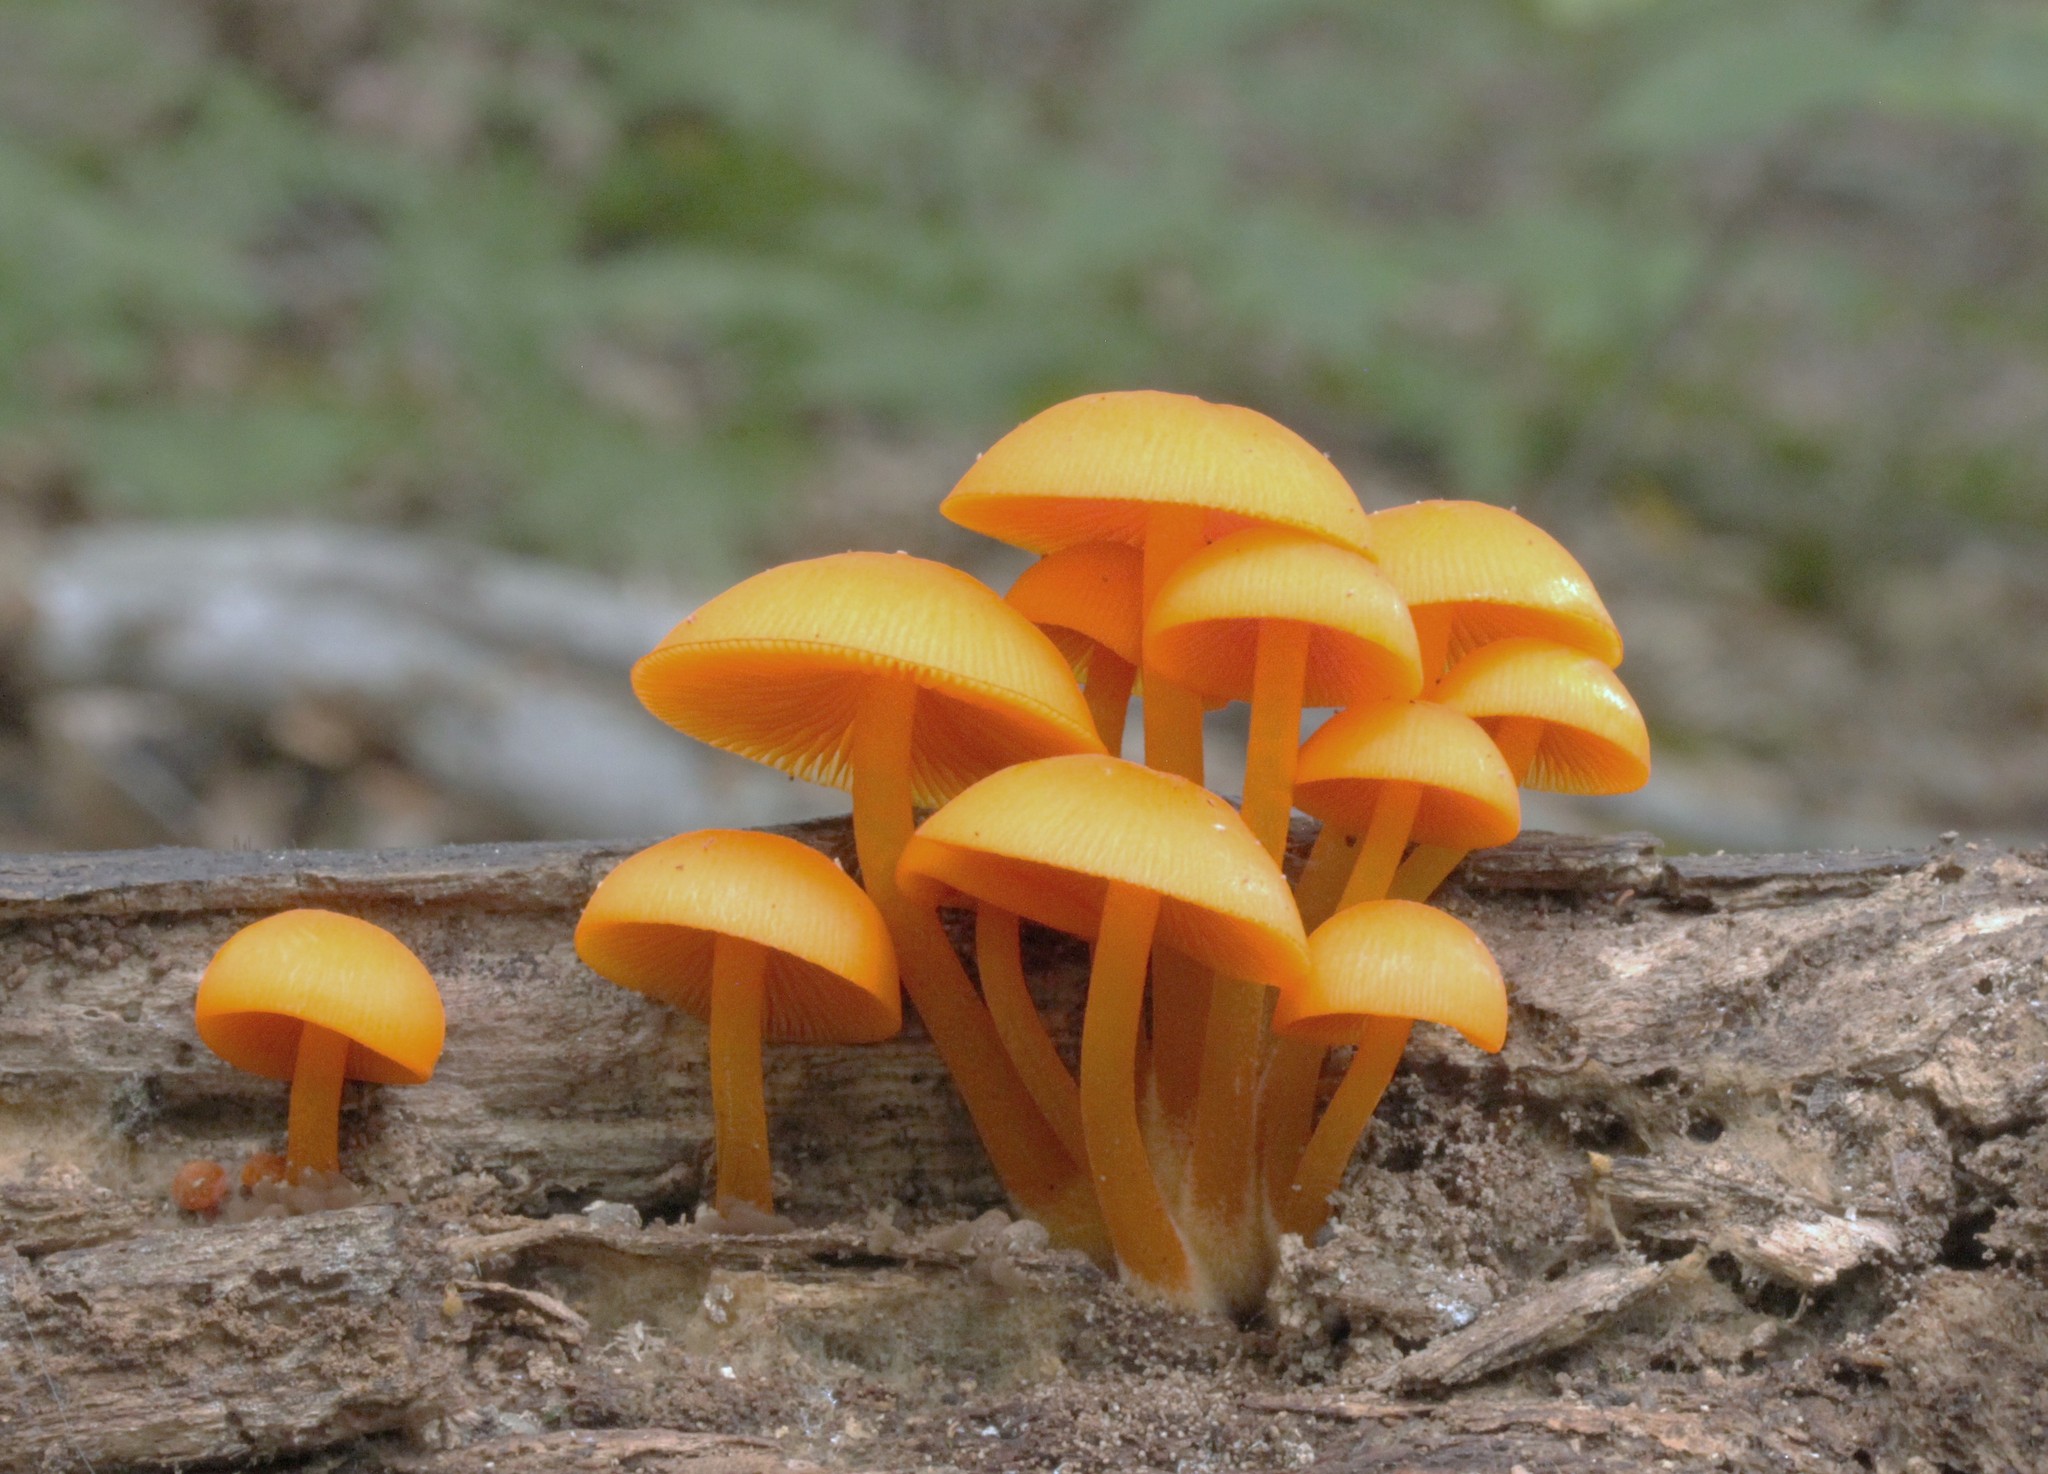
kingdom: Fungi
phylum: Basidiomycota
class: Agaricomycetes
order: Agaricales
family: Mycenaceae
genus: Mycena
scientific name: Mycena leaiana
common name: Orange mycena
